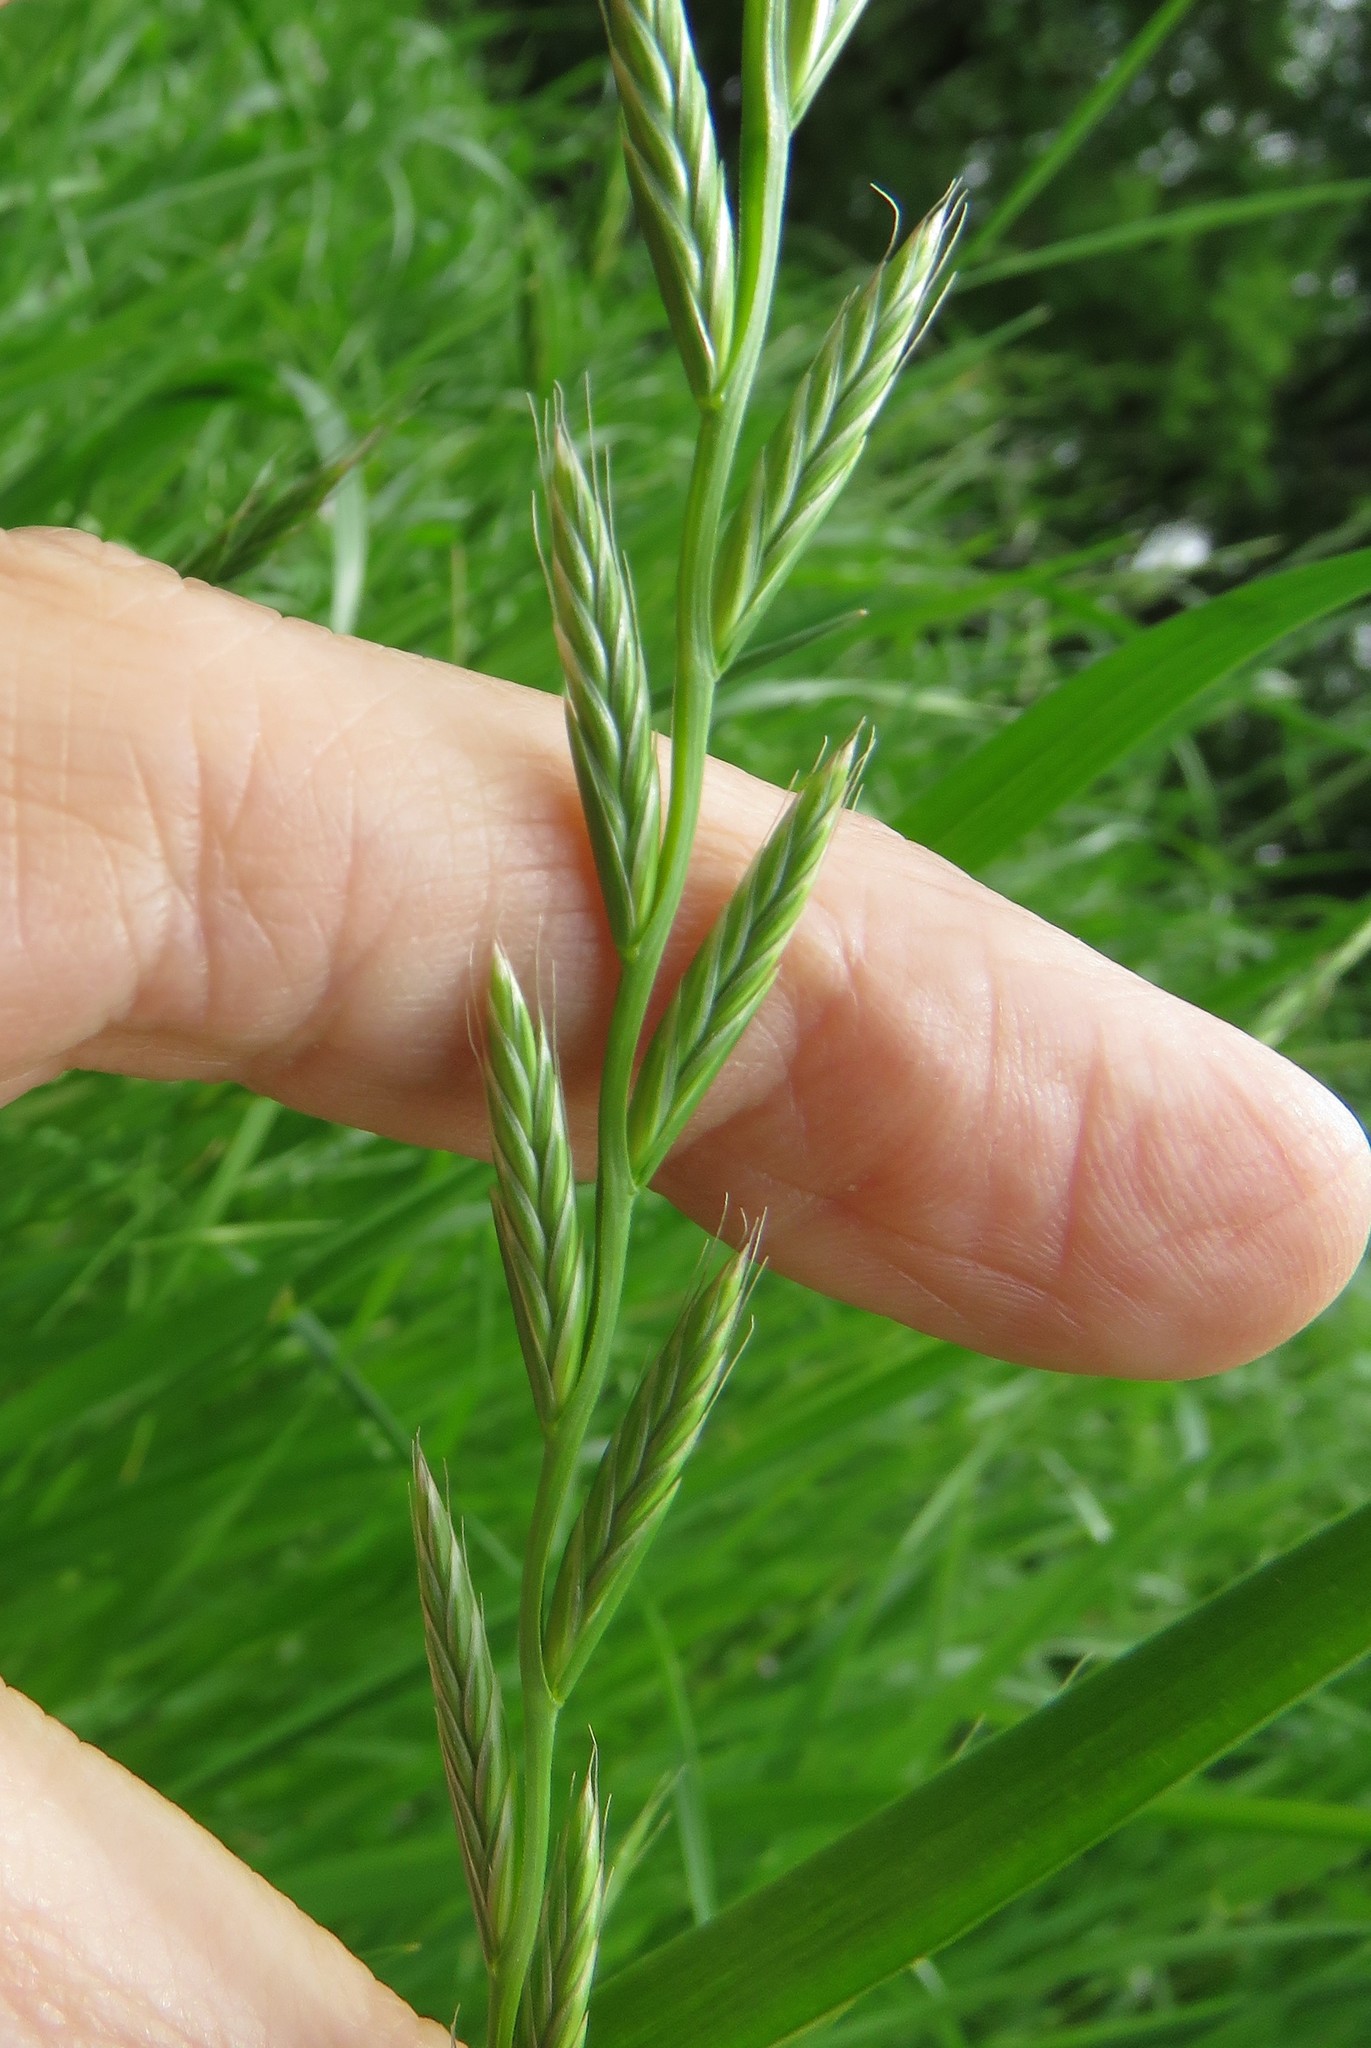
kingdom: Plantae
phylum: Tracheophyta
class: Liliopsida
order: Poales
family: Poaceae
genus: Lolium
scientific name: Lolium perenne
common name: Perennial ryegrass
